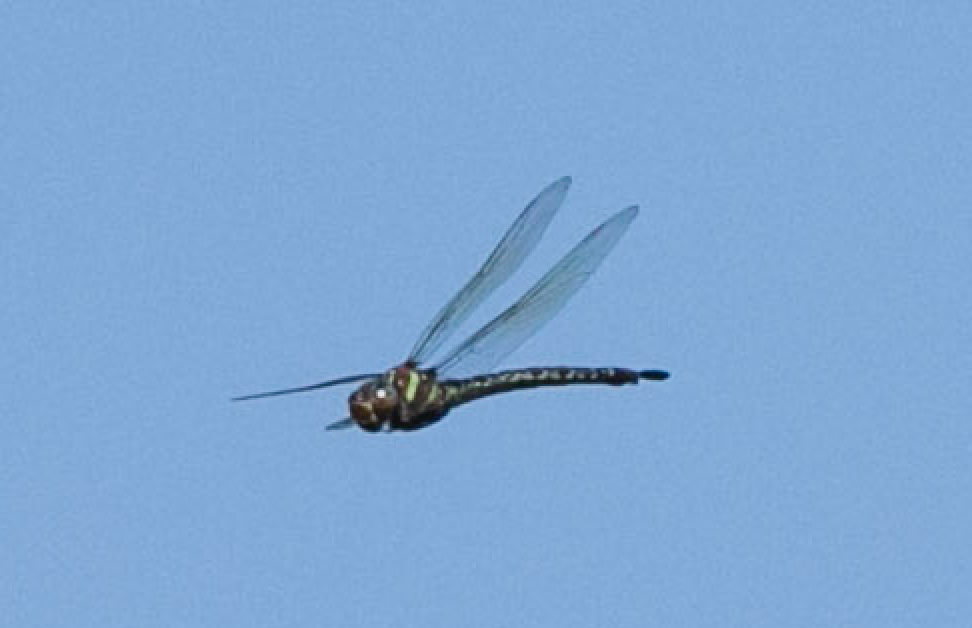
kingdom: Animalia
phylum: Arthropoda
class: Insecta
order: Odonata
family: Aeshnidae
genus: Epiaeschna
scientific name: Epiaeschna heros
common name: Swamp darner
